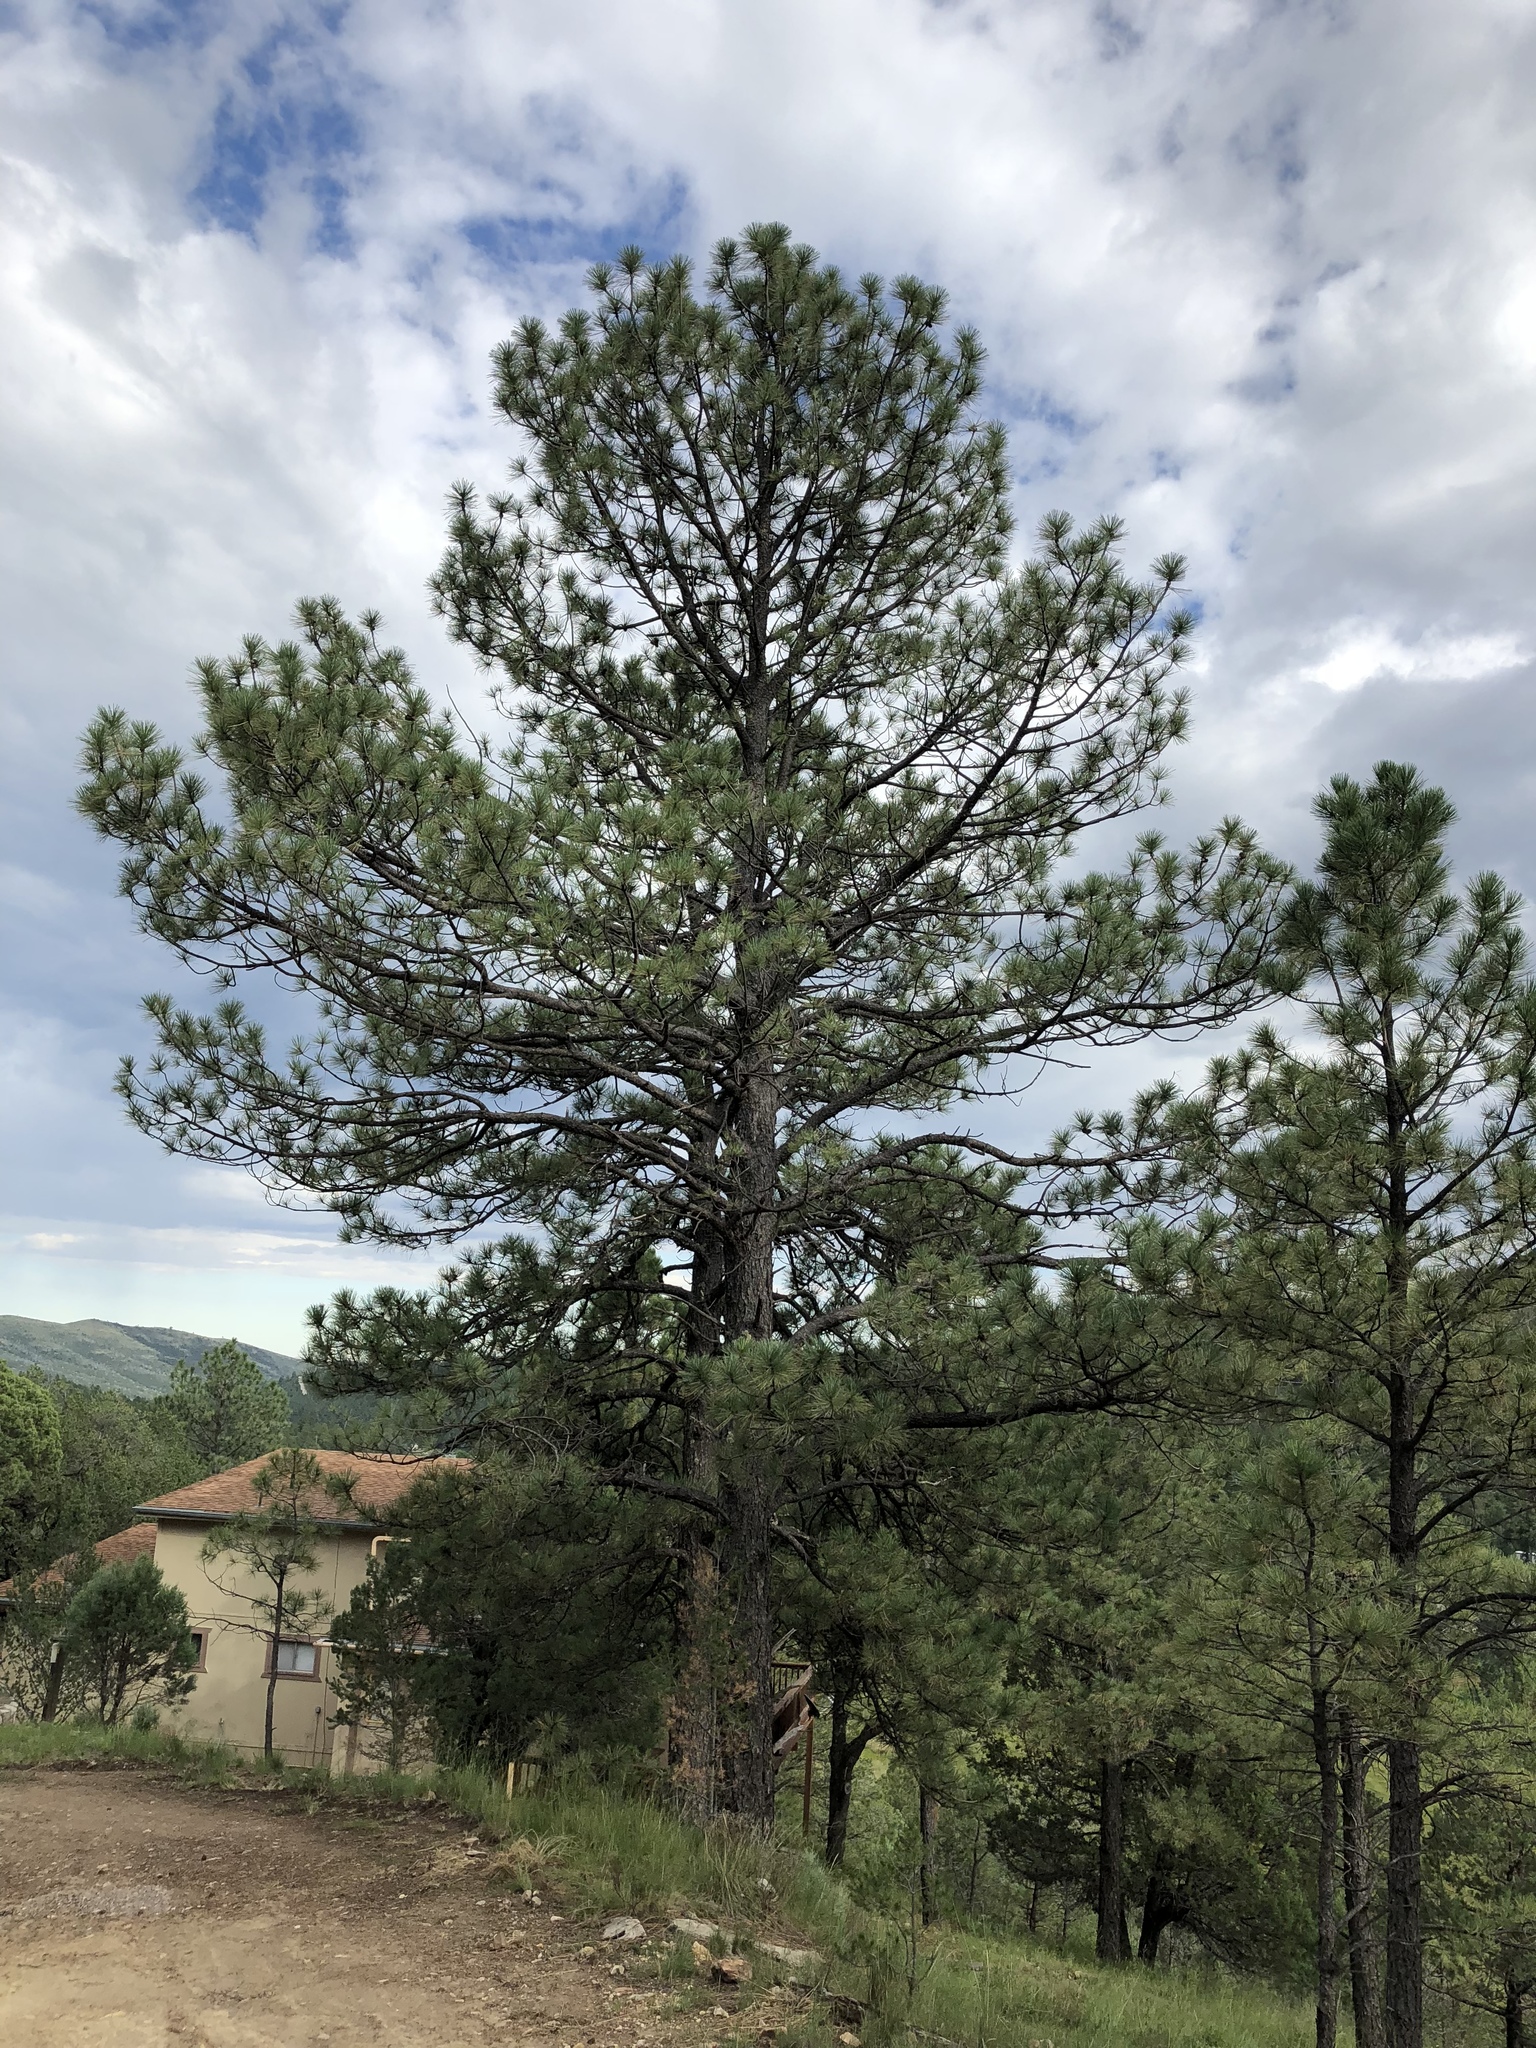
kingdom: Plantae
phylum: Tracheophyta
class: Pinopsida
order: Pinales
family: Pinaceae
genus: Pinus
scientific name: Pinus ponderosa
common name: Western yellow-pine
